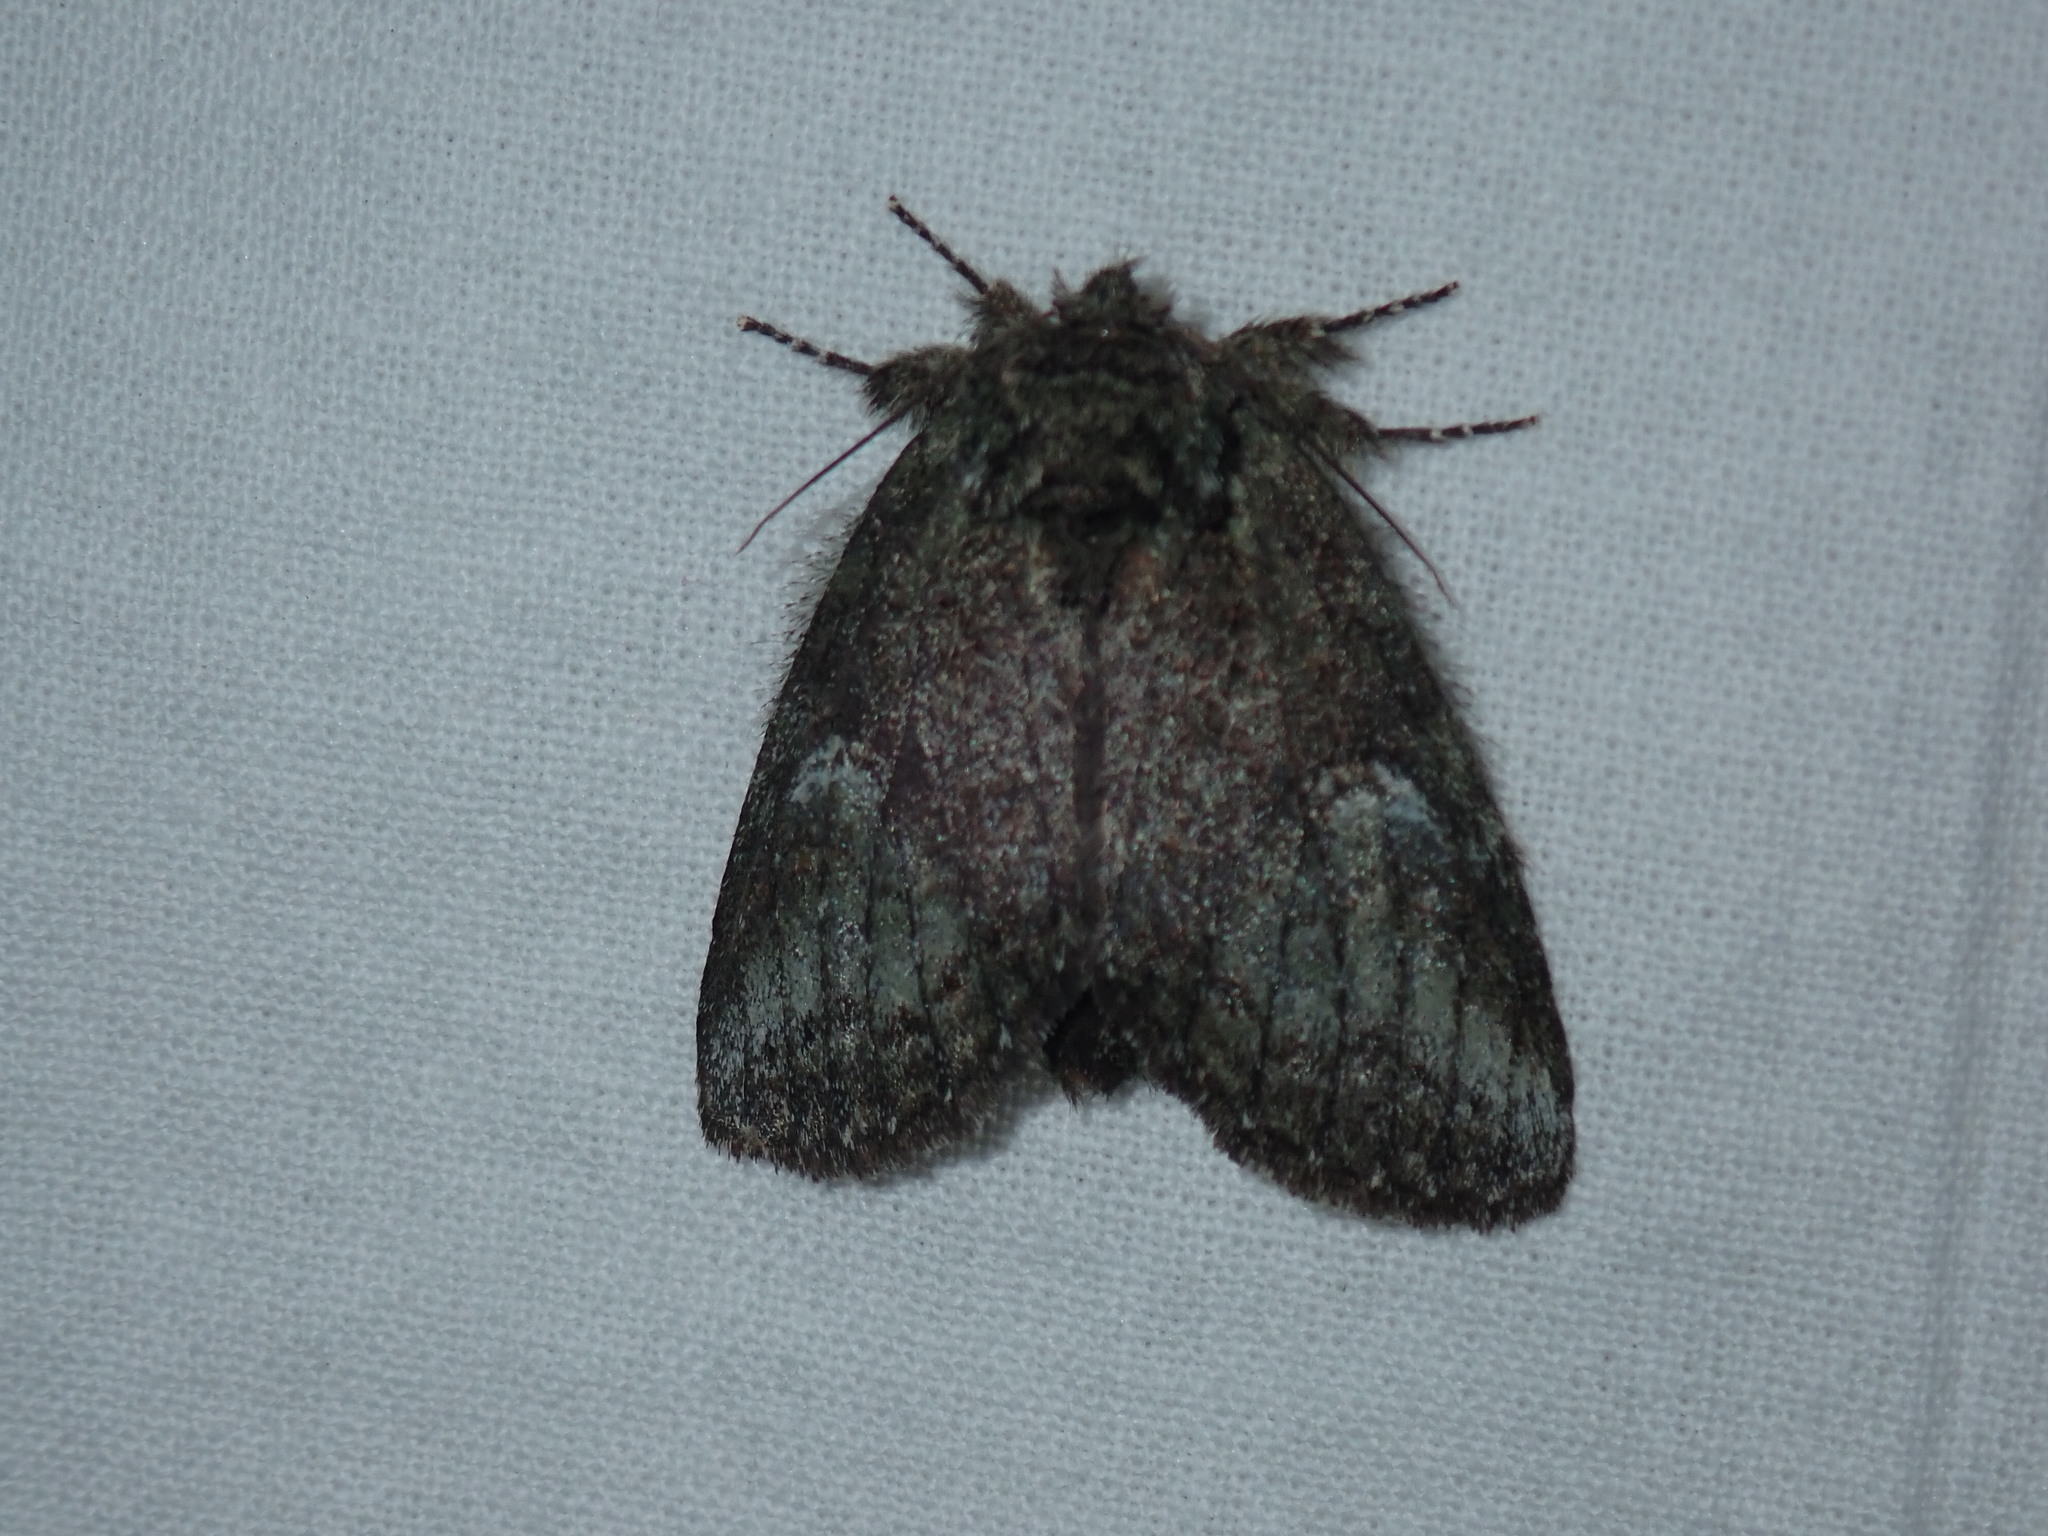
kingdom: Animalia
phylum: Arthropoda
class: Insecta
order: Lepidoptera
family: Notodontidae
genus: Disphragis
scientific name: Disphragis Cecrita guttivitta
